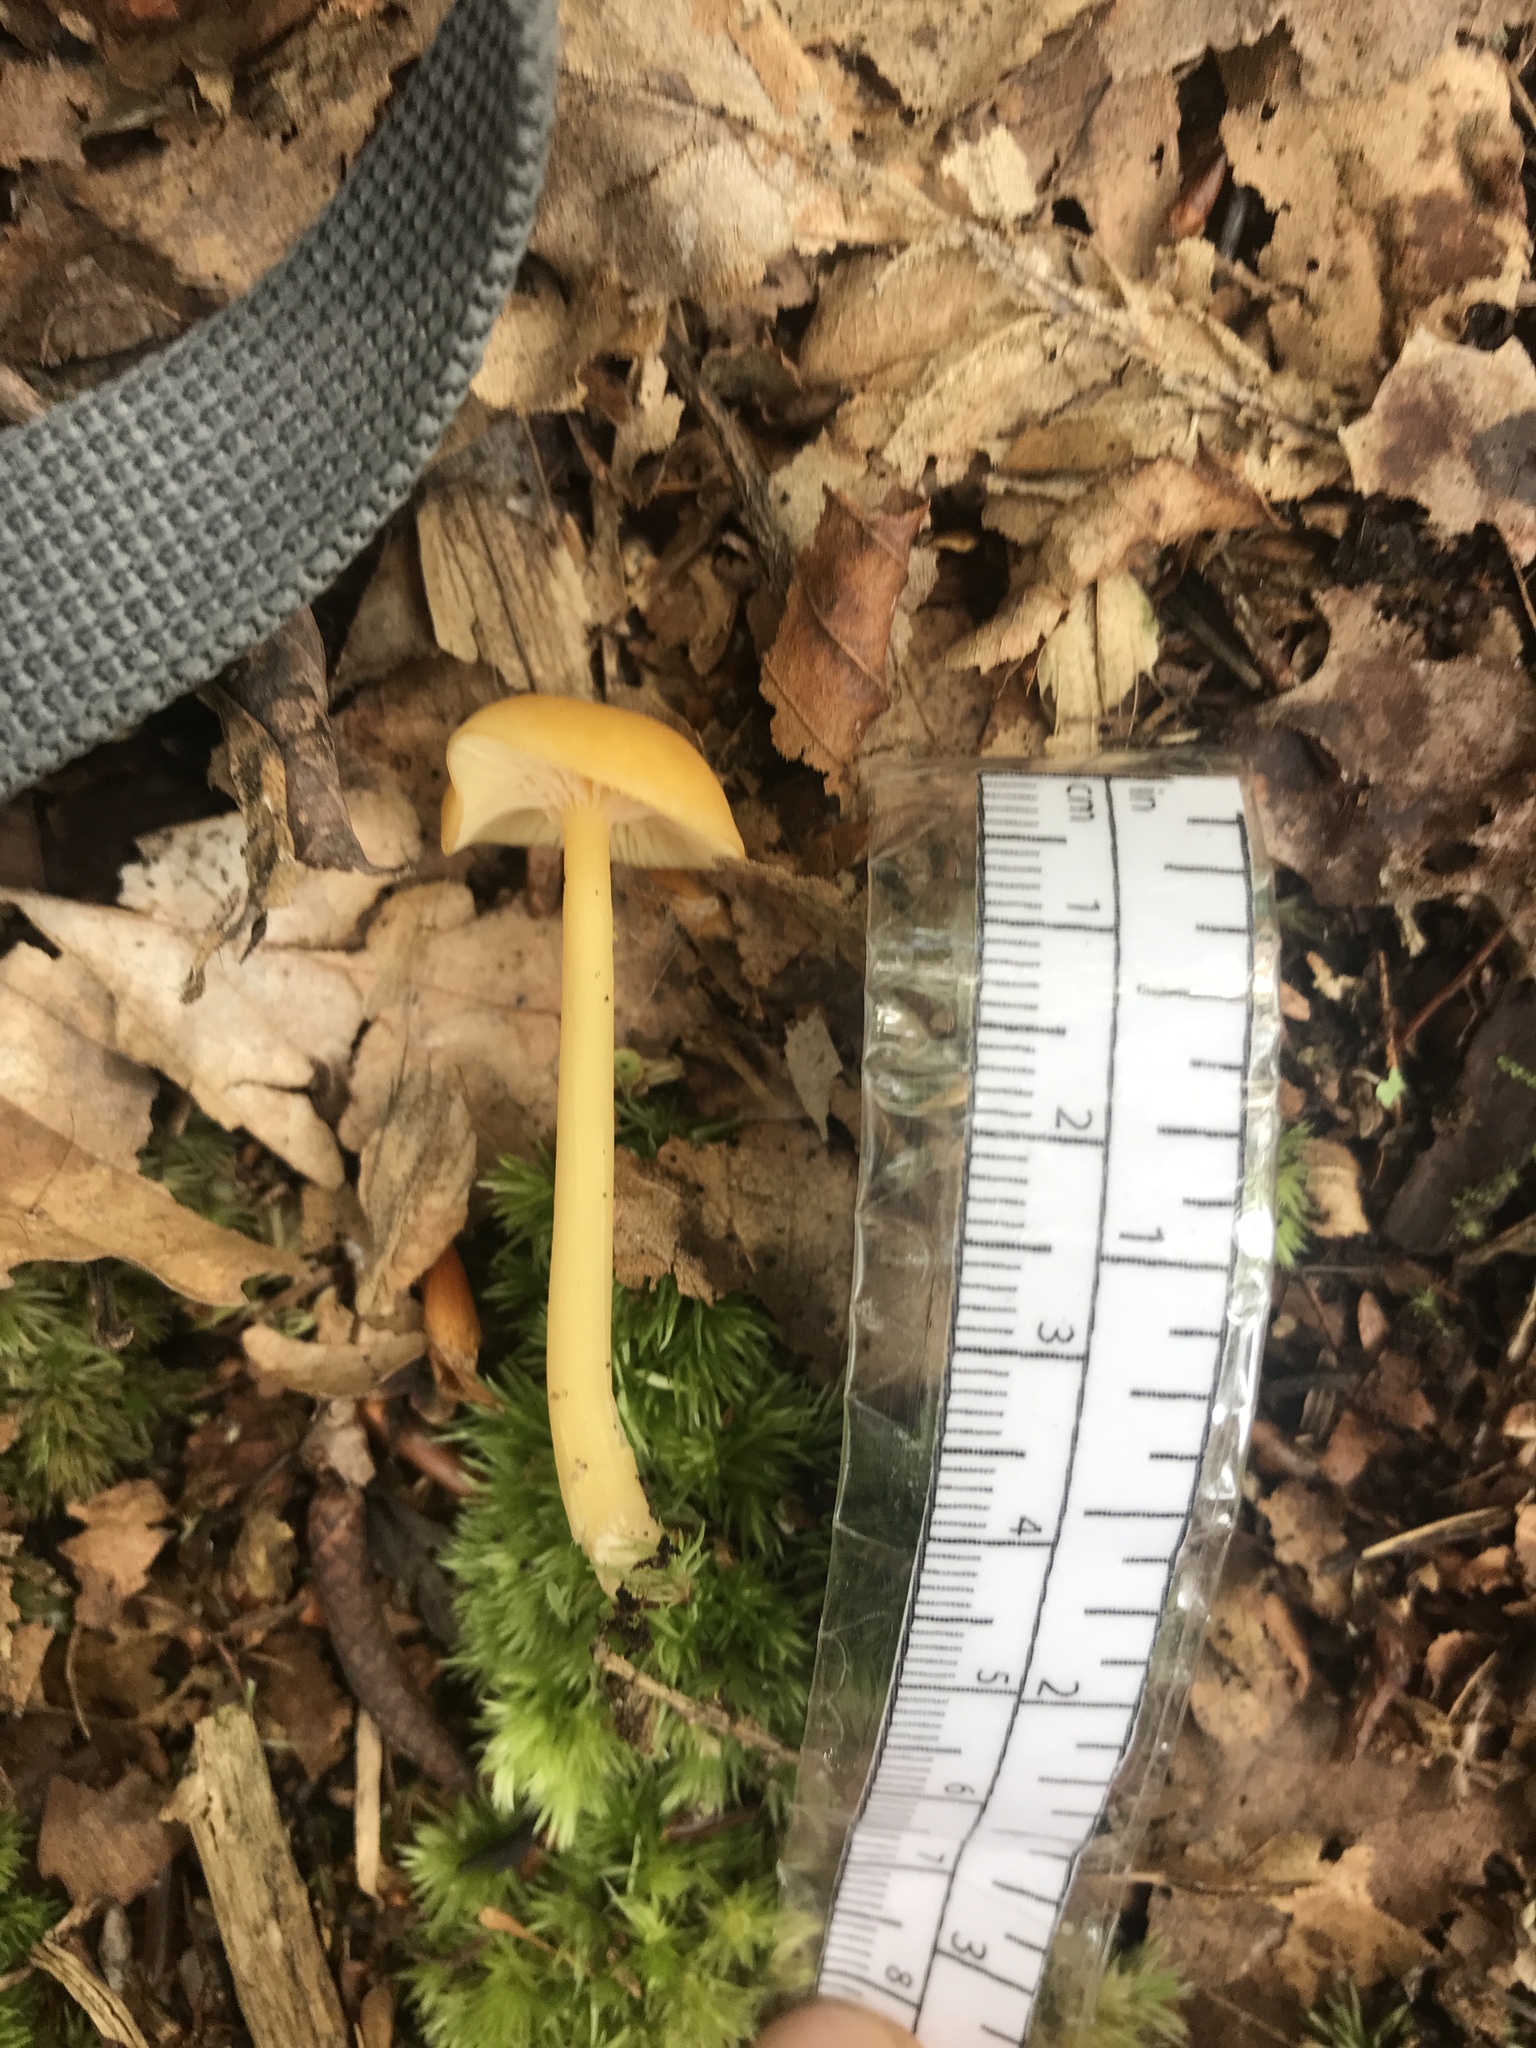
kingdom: Fungi
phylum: Basidiomycota
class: Agaricomycetes
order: Agaricales
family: Entolomataceae
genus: Entoloma
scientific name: Entoloma unicolor
